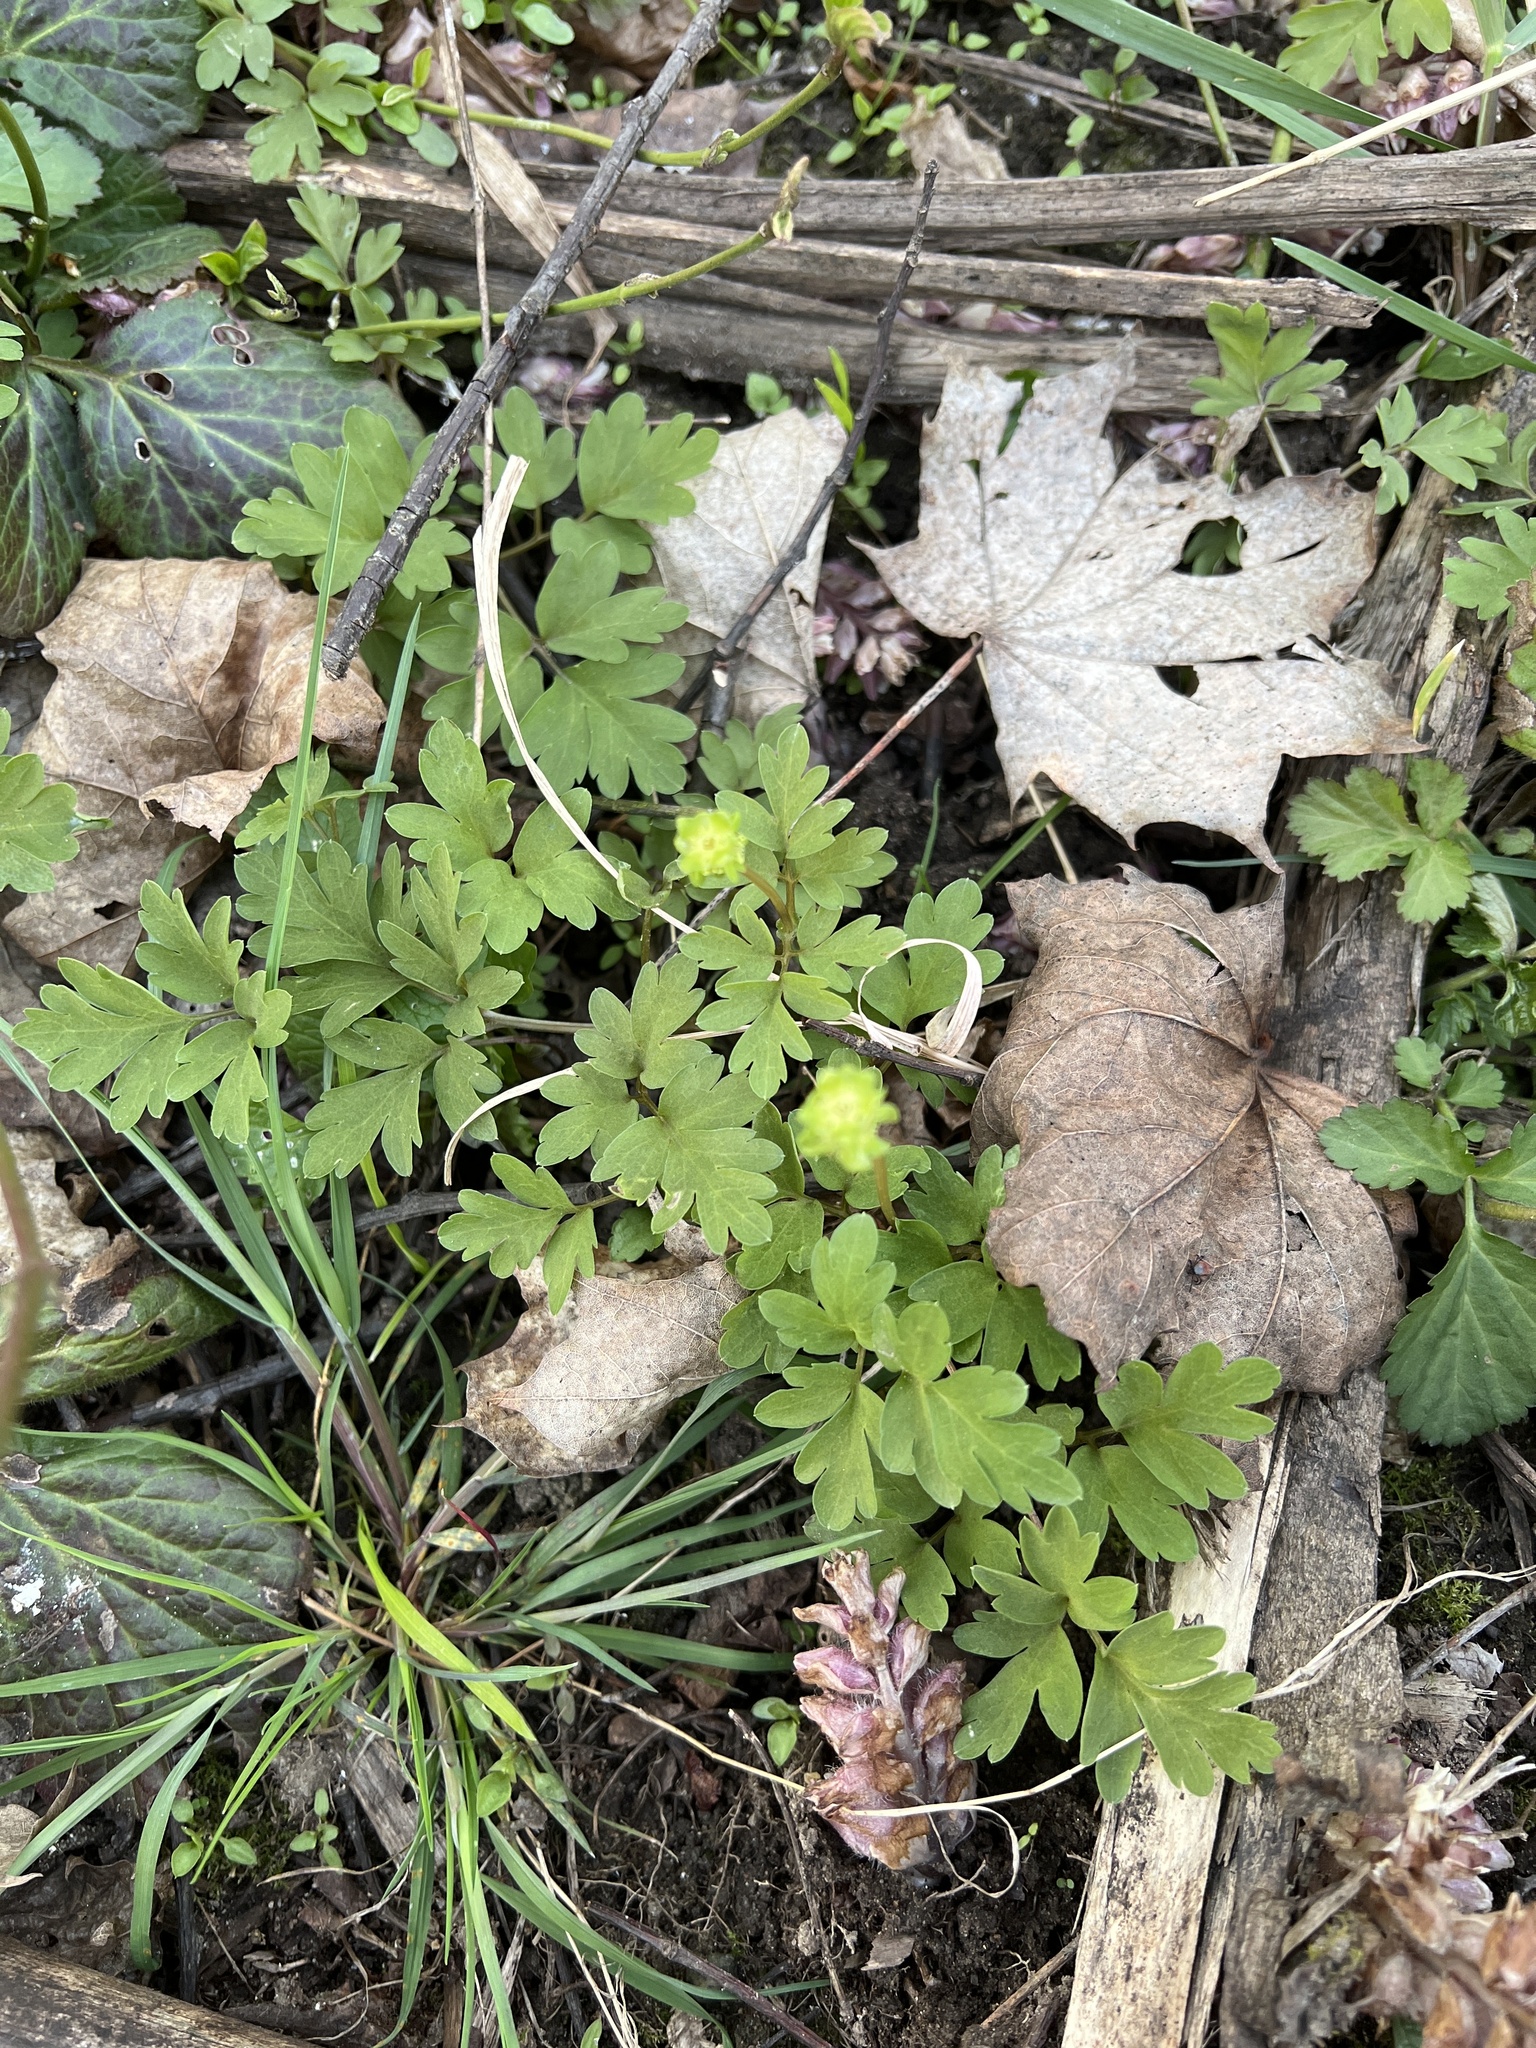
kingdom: Plantae
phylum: Tracheophyta
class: Magnoliopsida
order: Dipsacales
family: Viburnaceae
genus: Adoxa
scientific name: Adoxa moschatellina
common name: Moschatel
